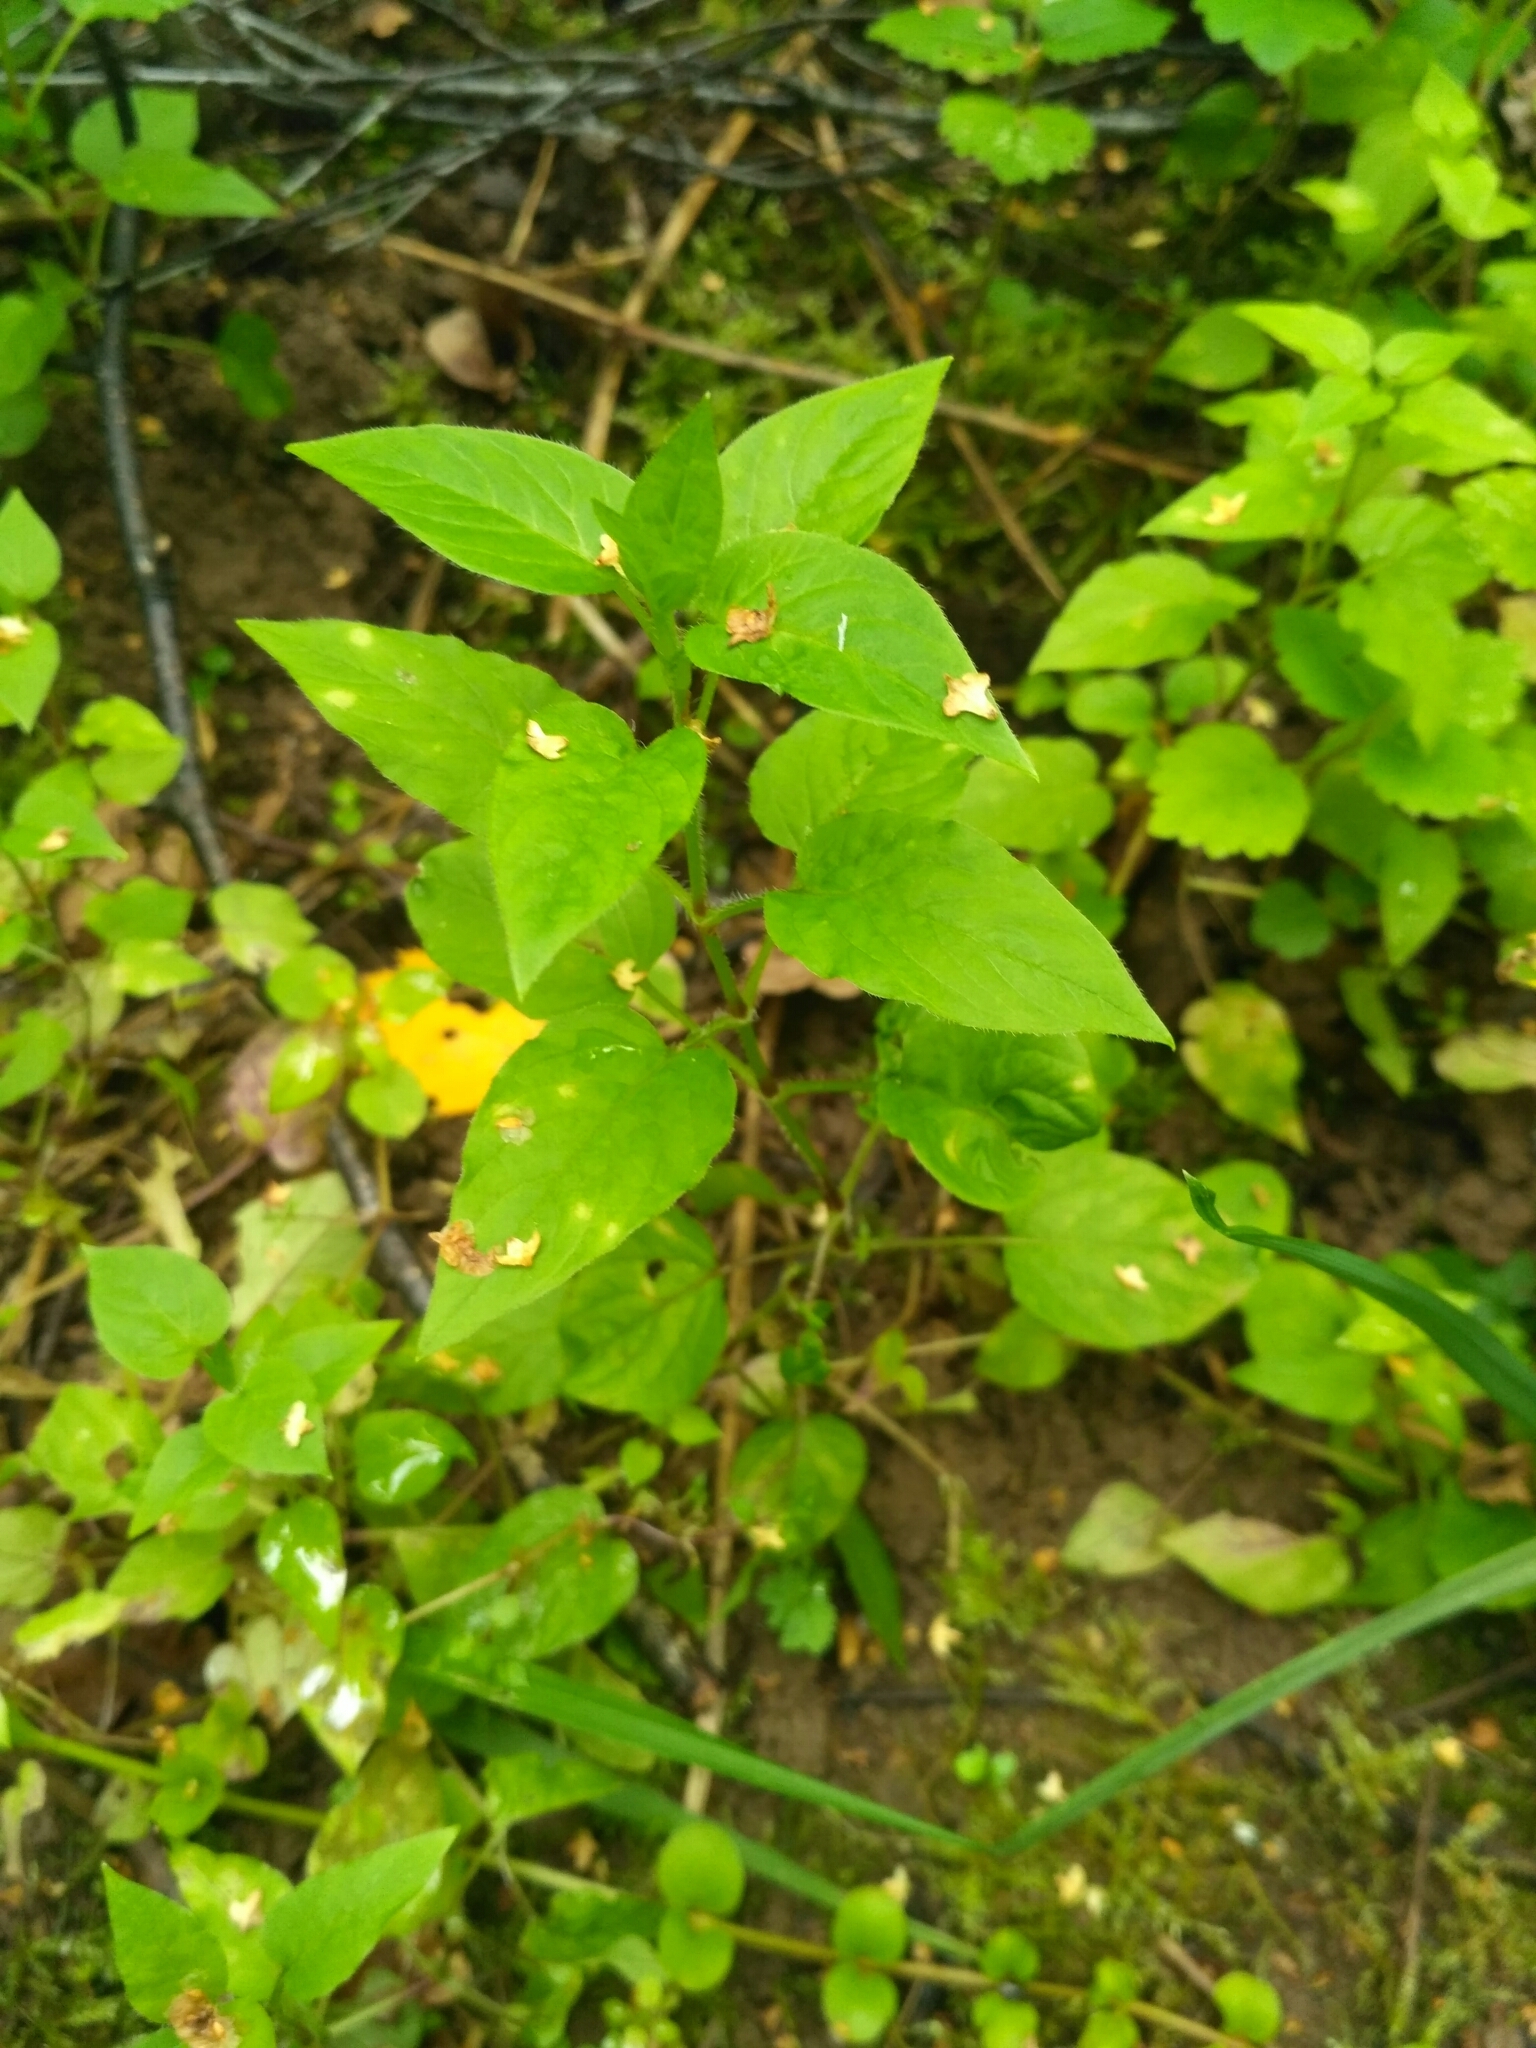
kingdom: Plantae
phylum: Tracheophyta
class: Magnoliopsida
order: Caryophyllales
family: Caryophyllaceae
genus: Stellaria
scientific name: Stellaria nemorum
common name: Wood stitchwort
